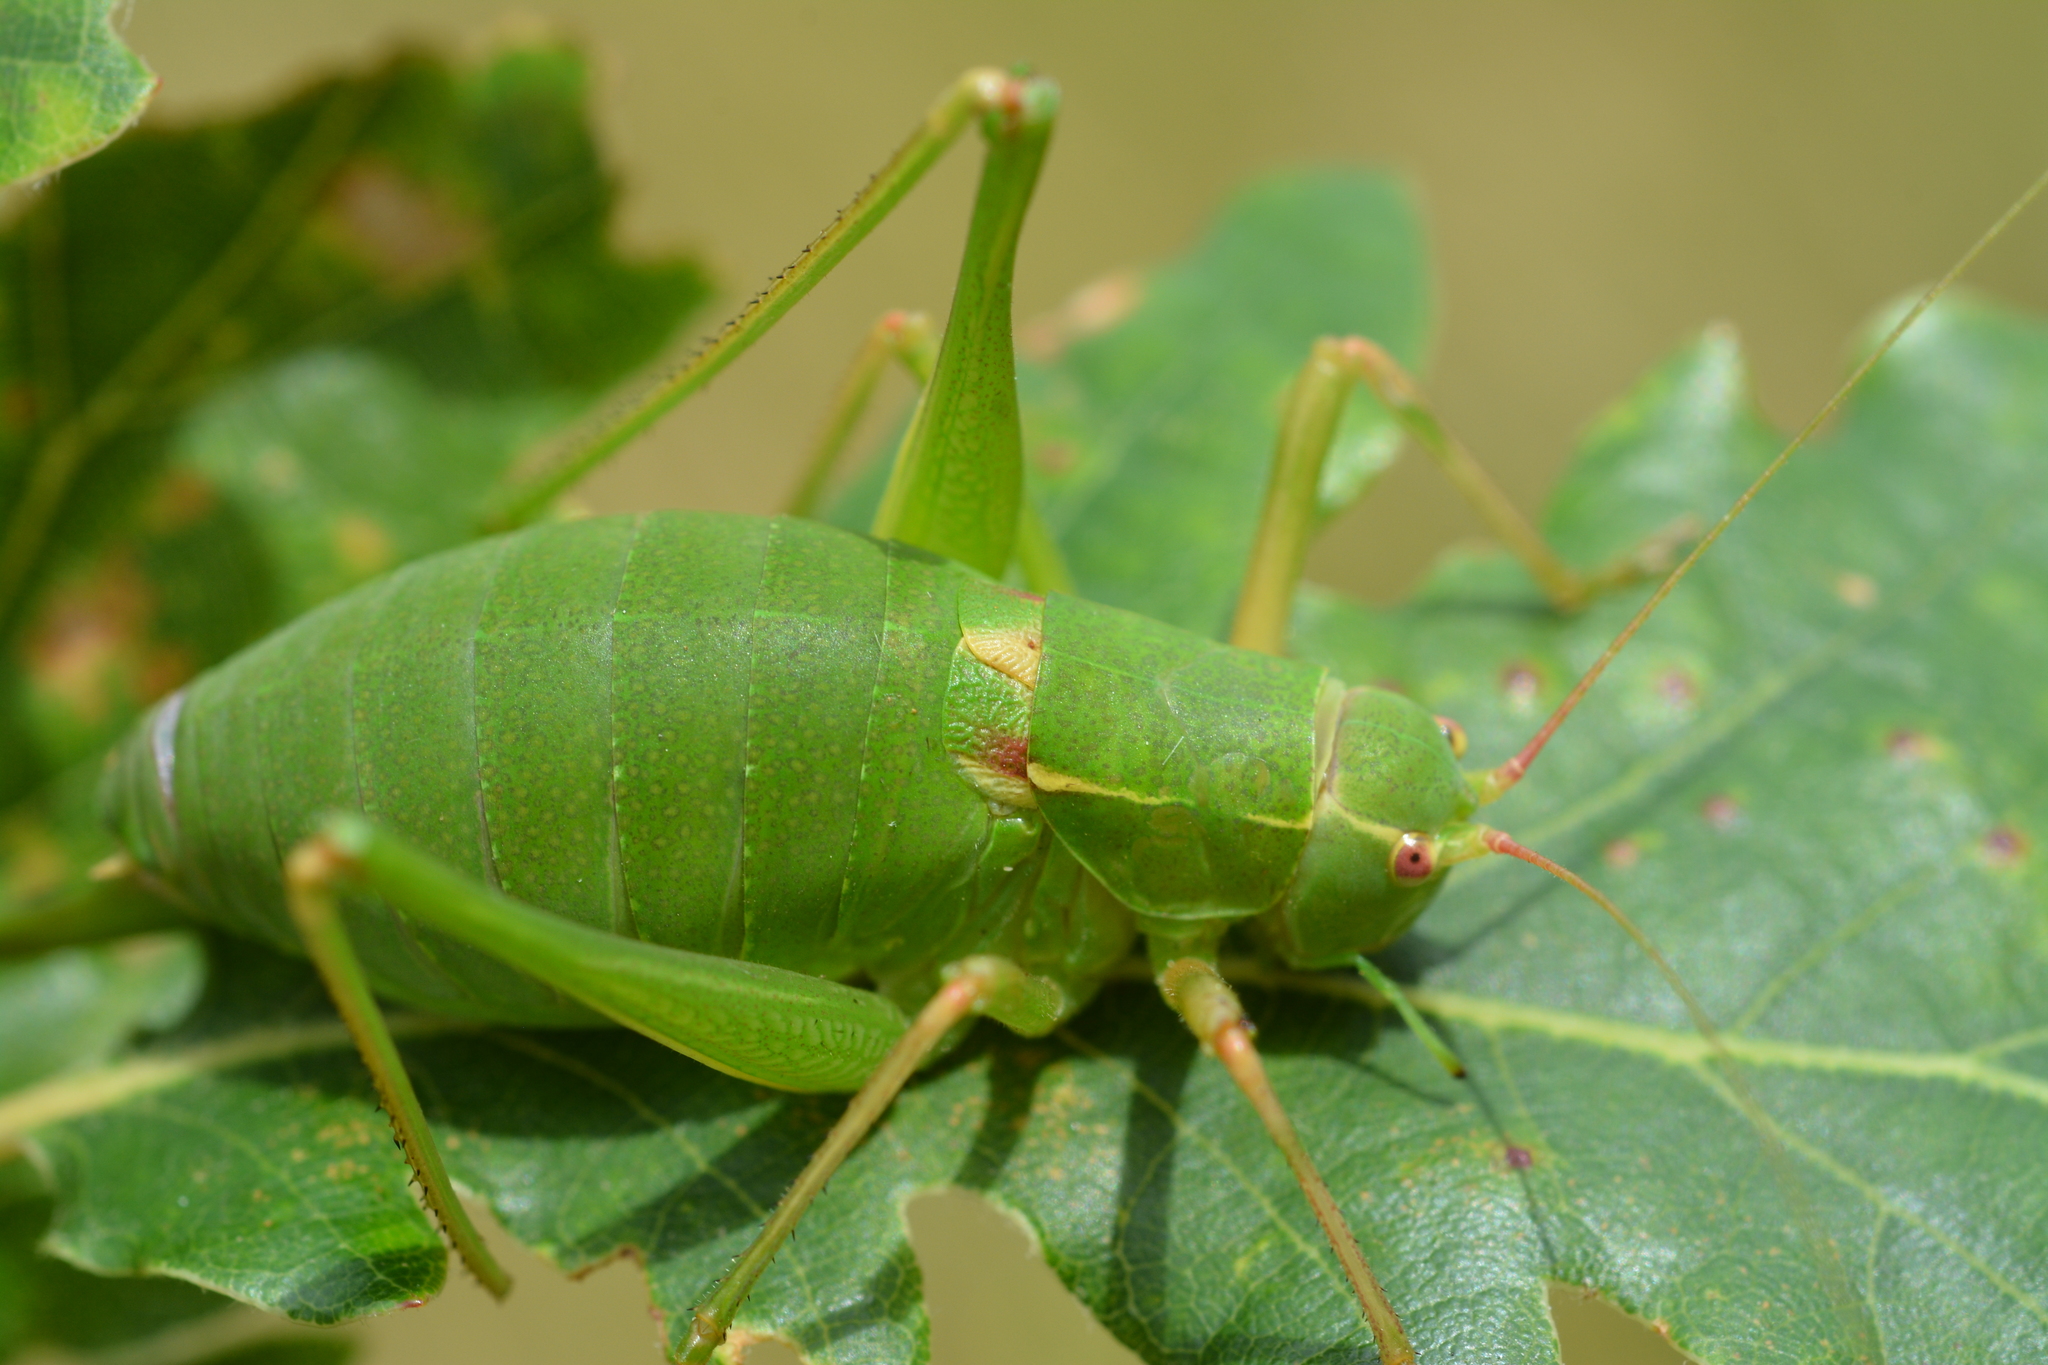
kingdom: Animalia
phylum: Arthropoda
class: Insecta
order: Orthoptera
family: Tettigoniidae
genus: Barbitistes
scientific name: Barbitistes fischeri
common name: Southern saw-tailed bush-cricket
